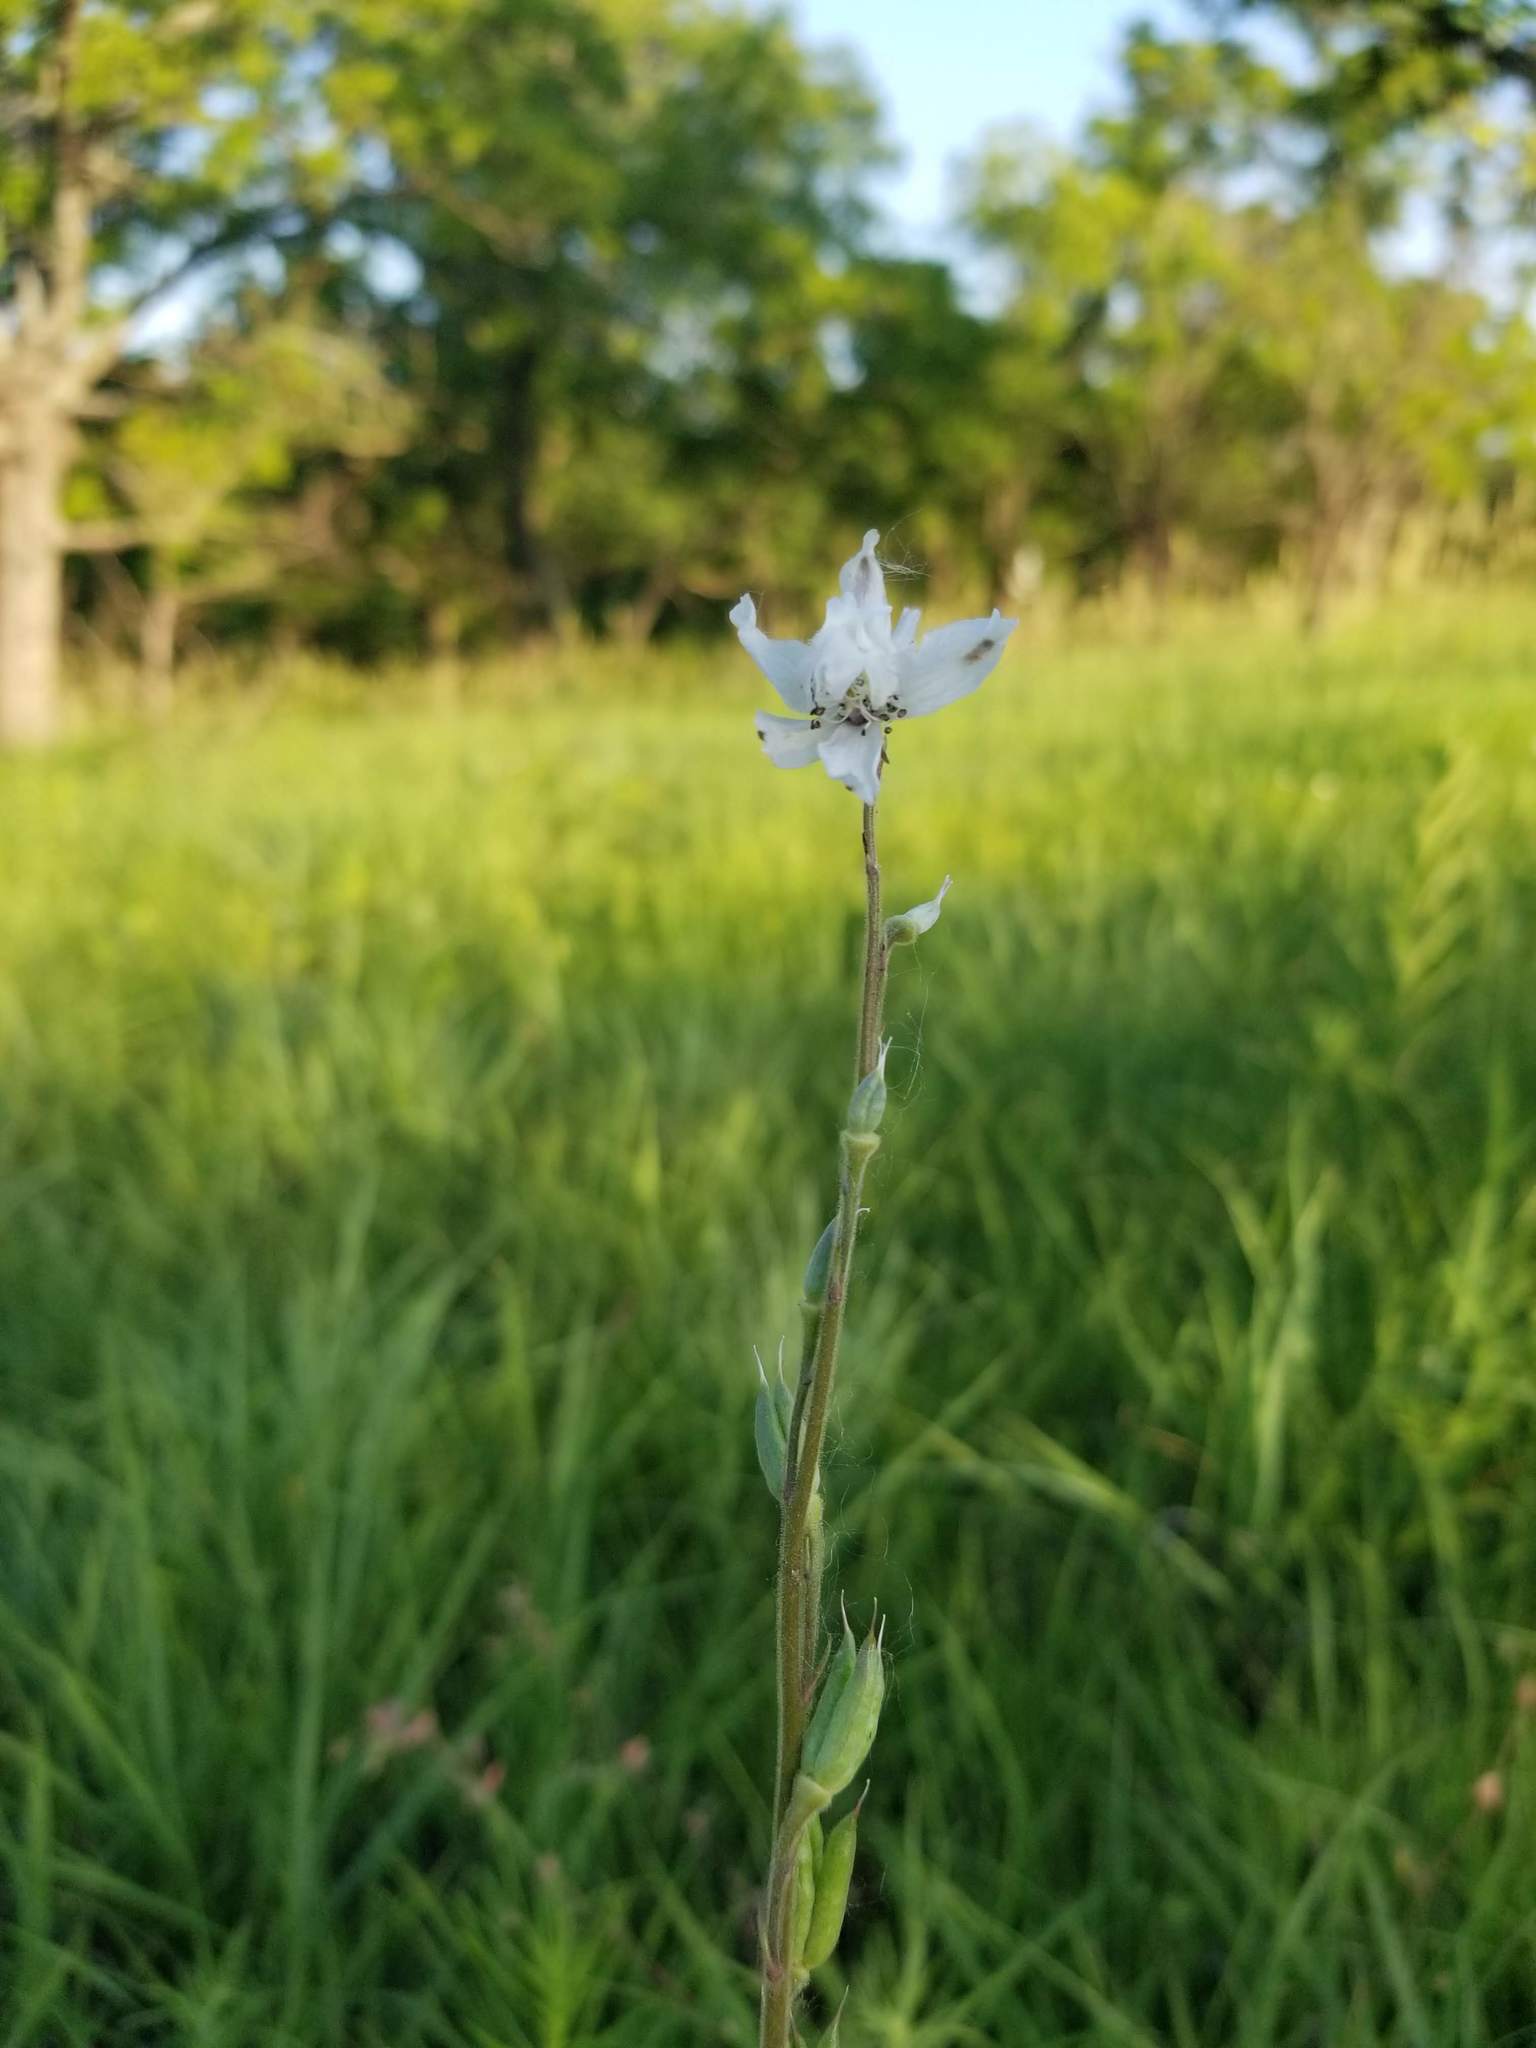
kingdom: Plantae
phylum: Tracheophyta
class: Magnoliopsida
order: Ranunculales
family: Ranunculaceae
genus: Delphinium
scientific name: Delphinium carolinianum
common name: Carolina larkspur
